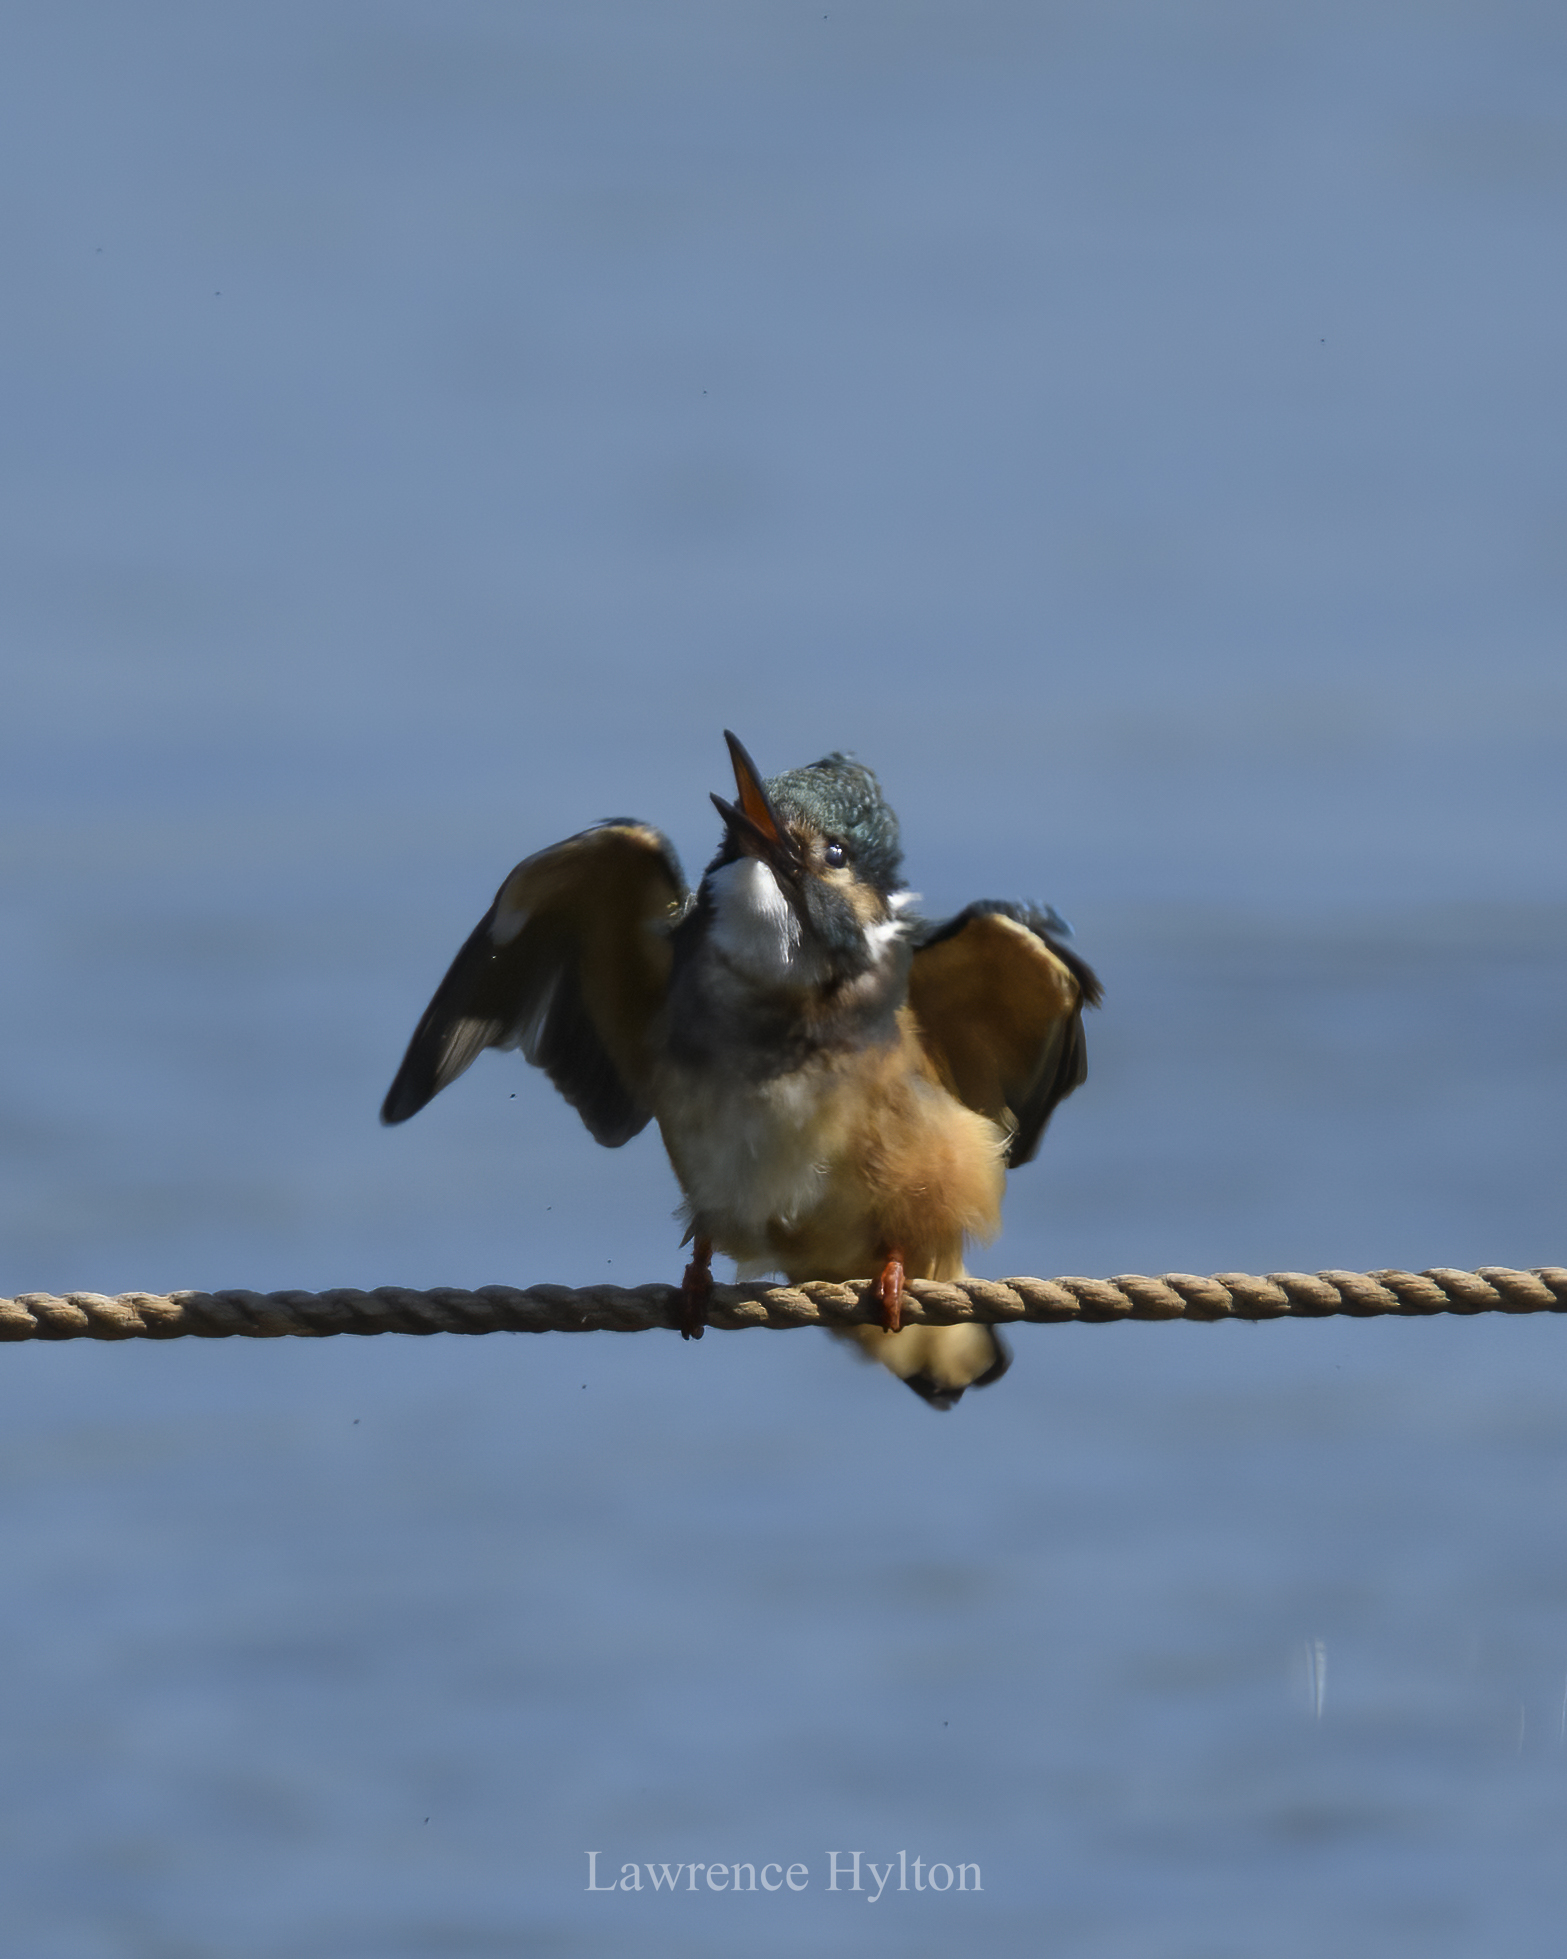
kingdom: Animalia
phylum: Chordata
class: Aves
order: Coraciiformes
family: Alcedinidae
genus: Alcedo
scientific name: Alcedo atthis
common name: Common kingfisher
